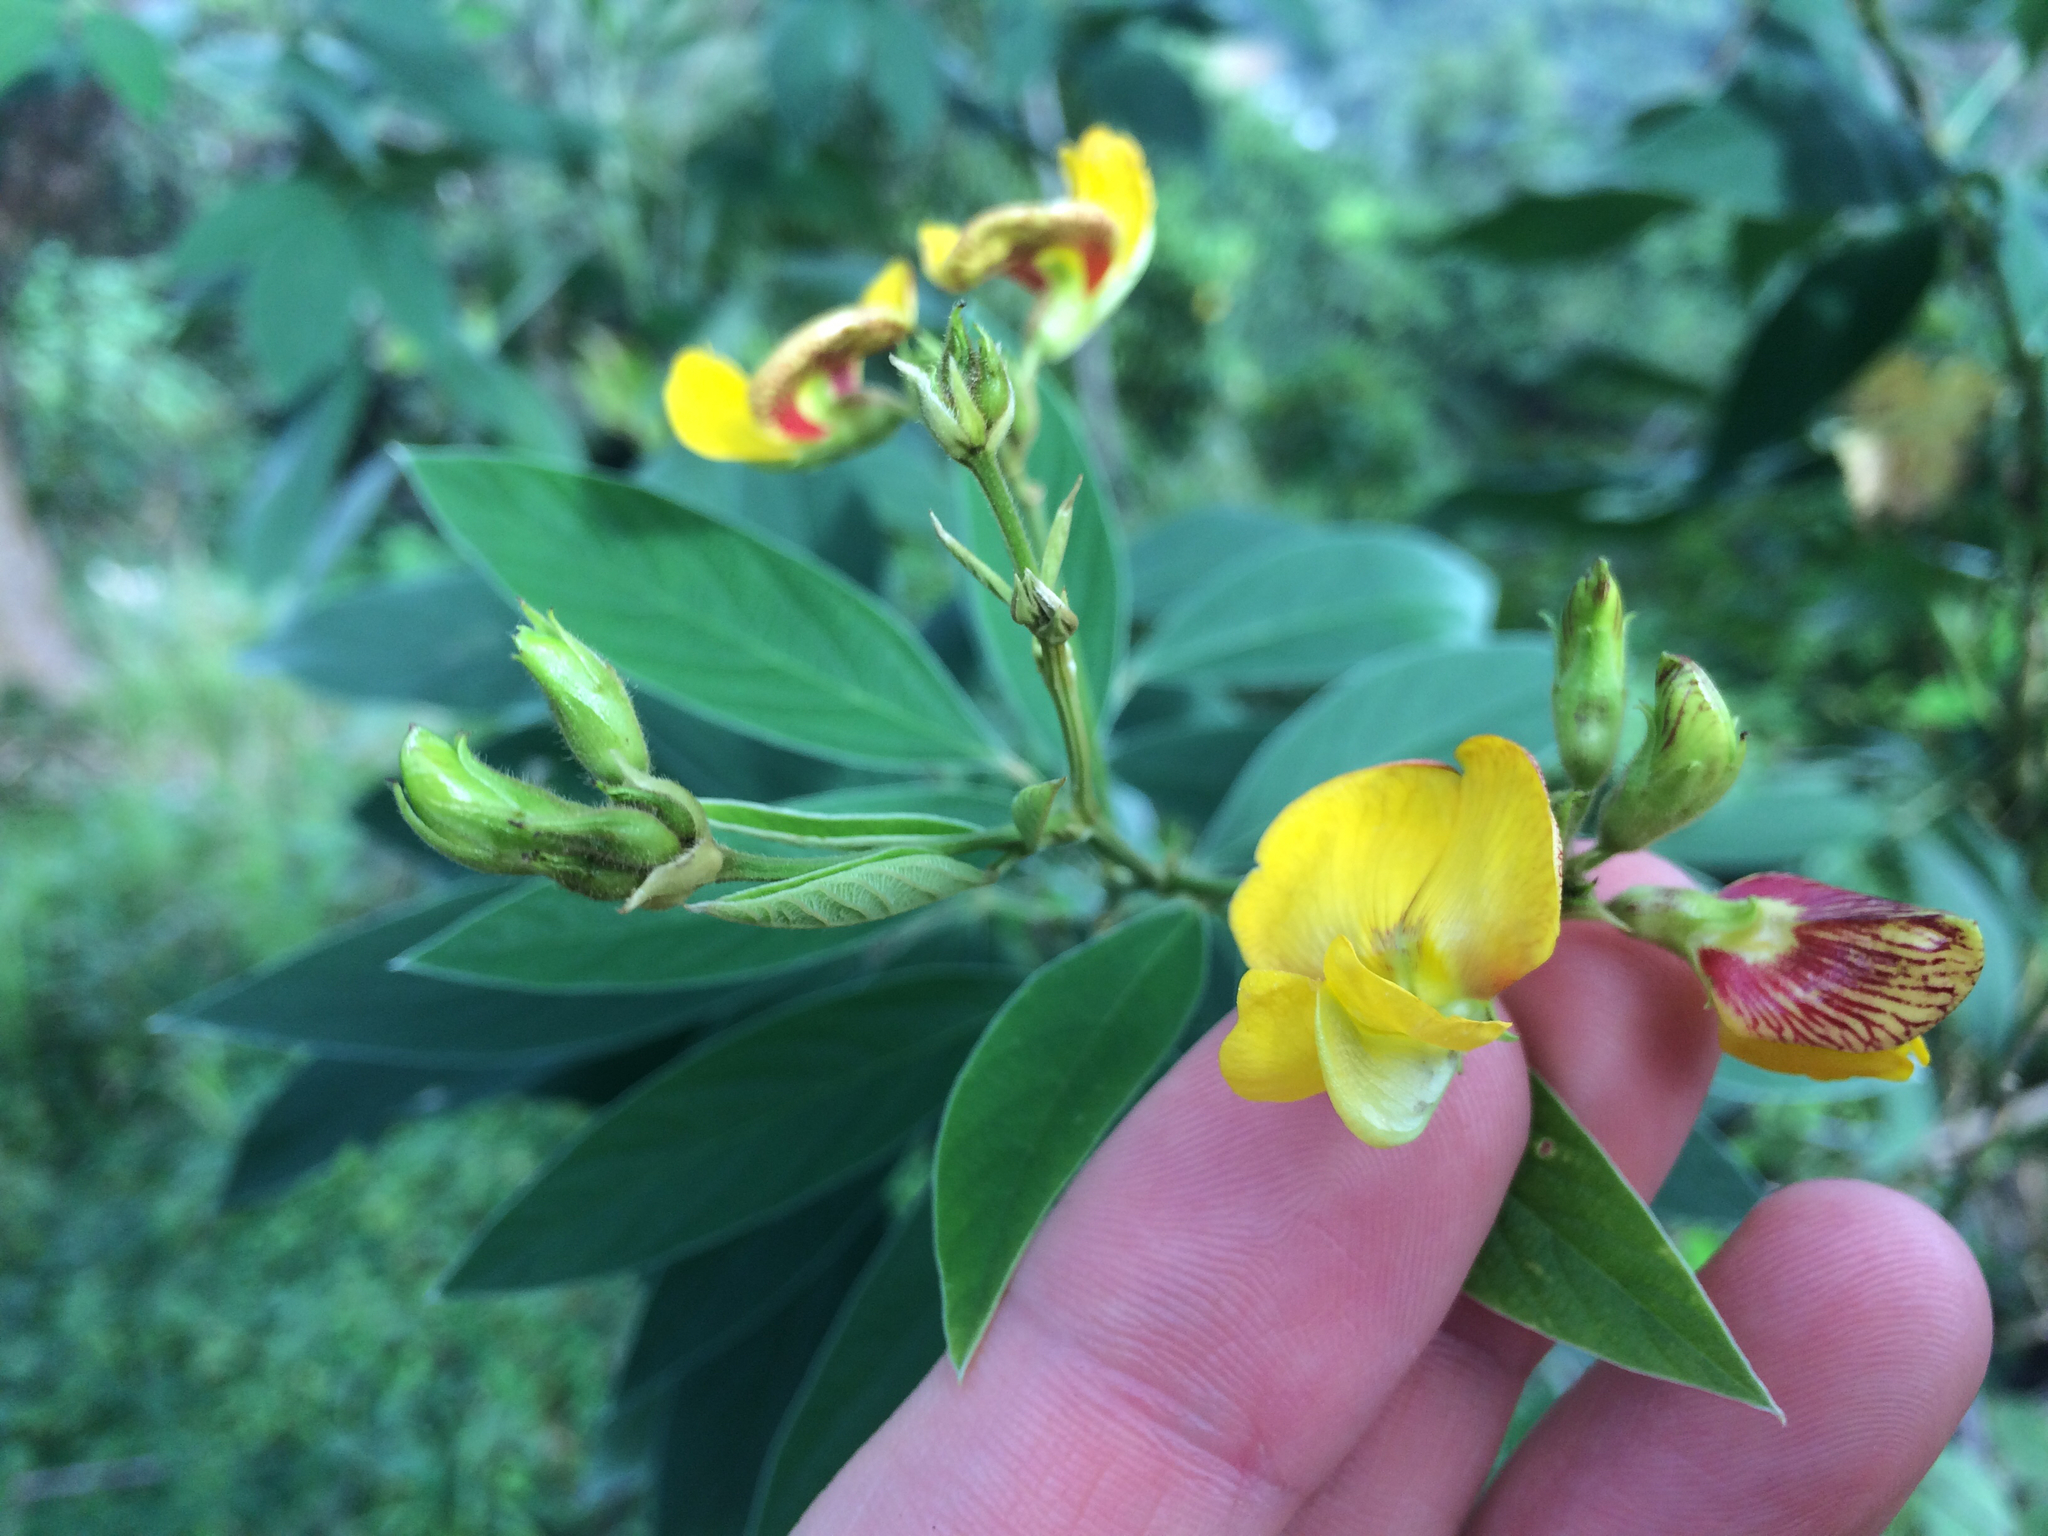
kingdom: Plantae
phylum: Tracheophyta
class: Magnoliopsida
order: Fabales
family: Fabaceae
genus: Cajanus
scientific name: Cajanus cajan
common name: Pigeonpea
